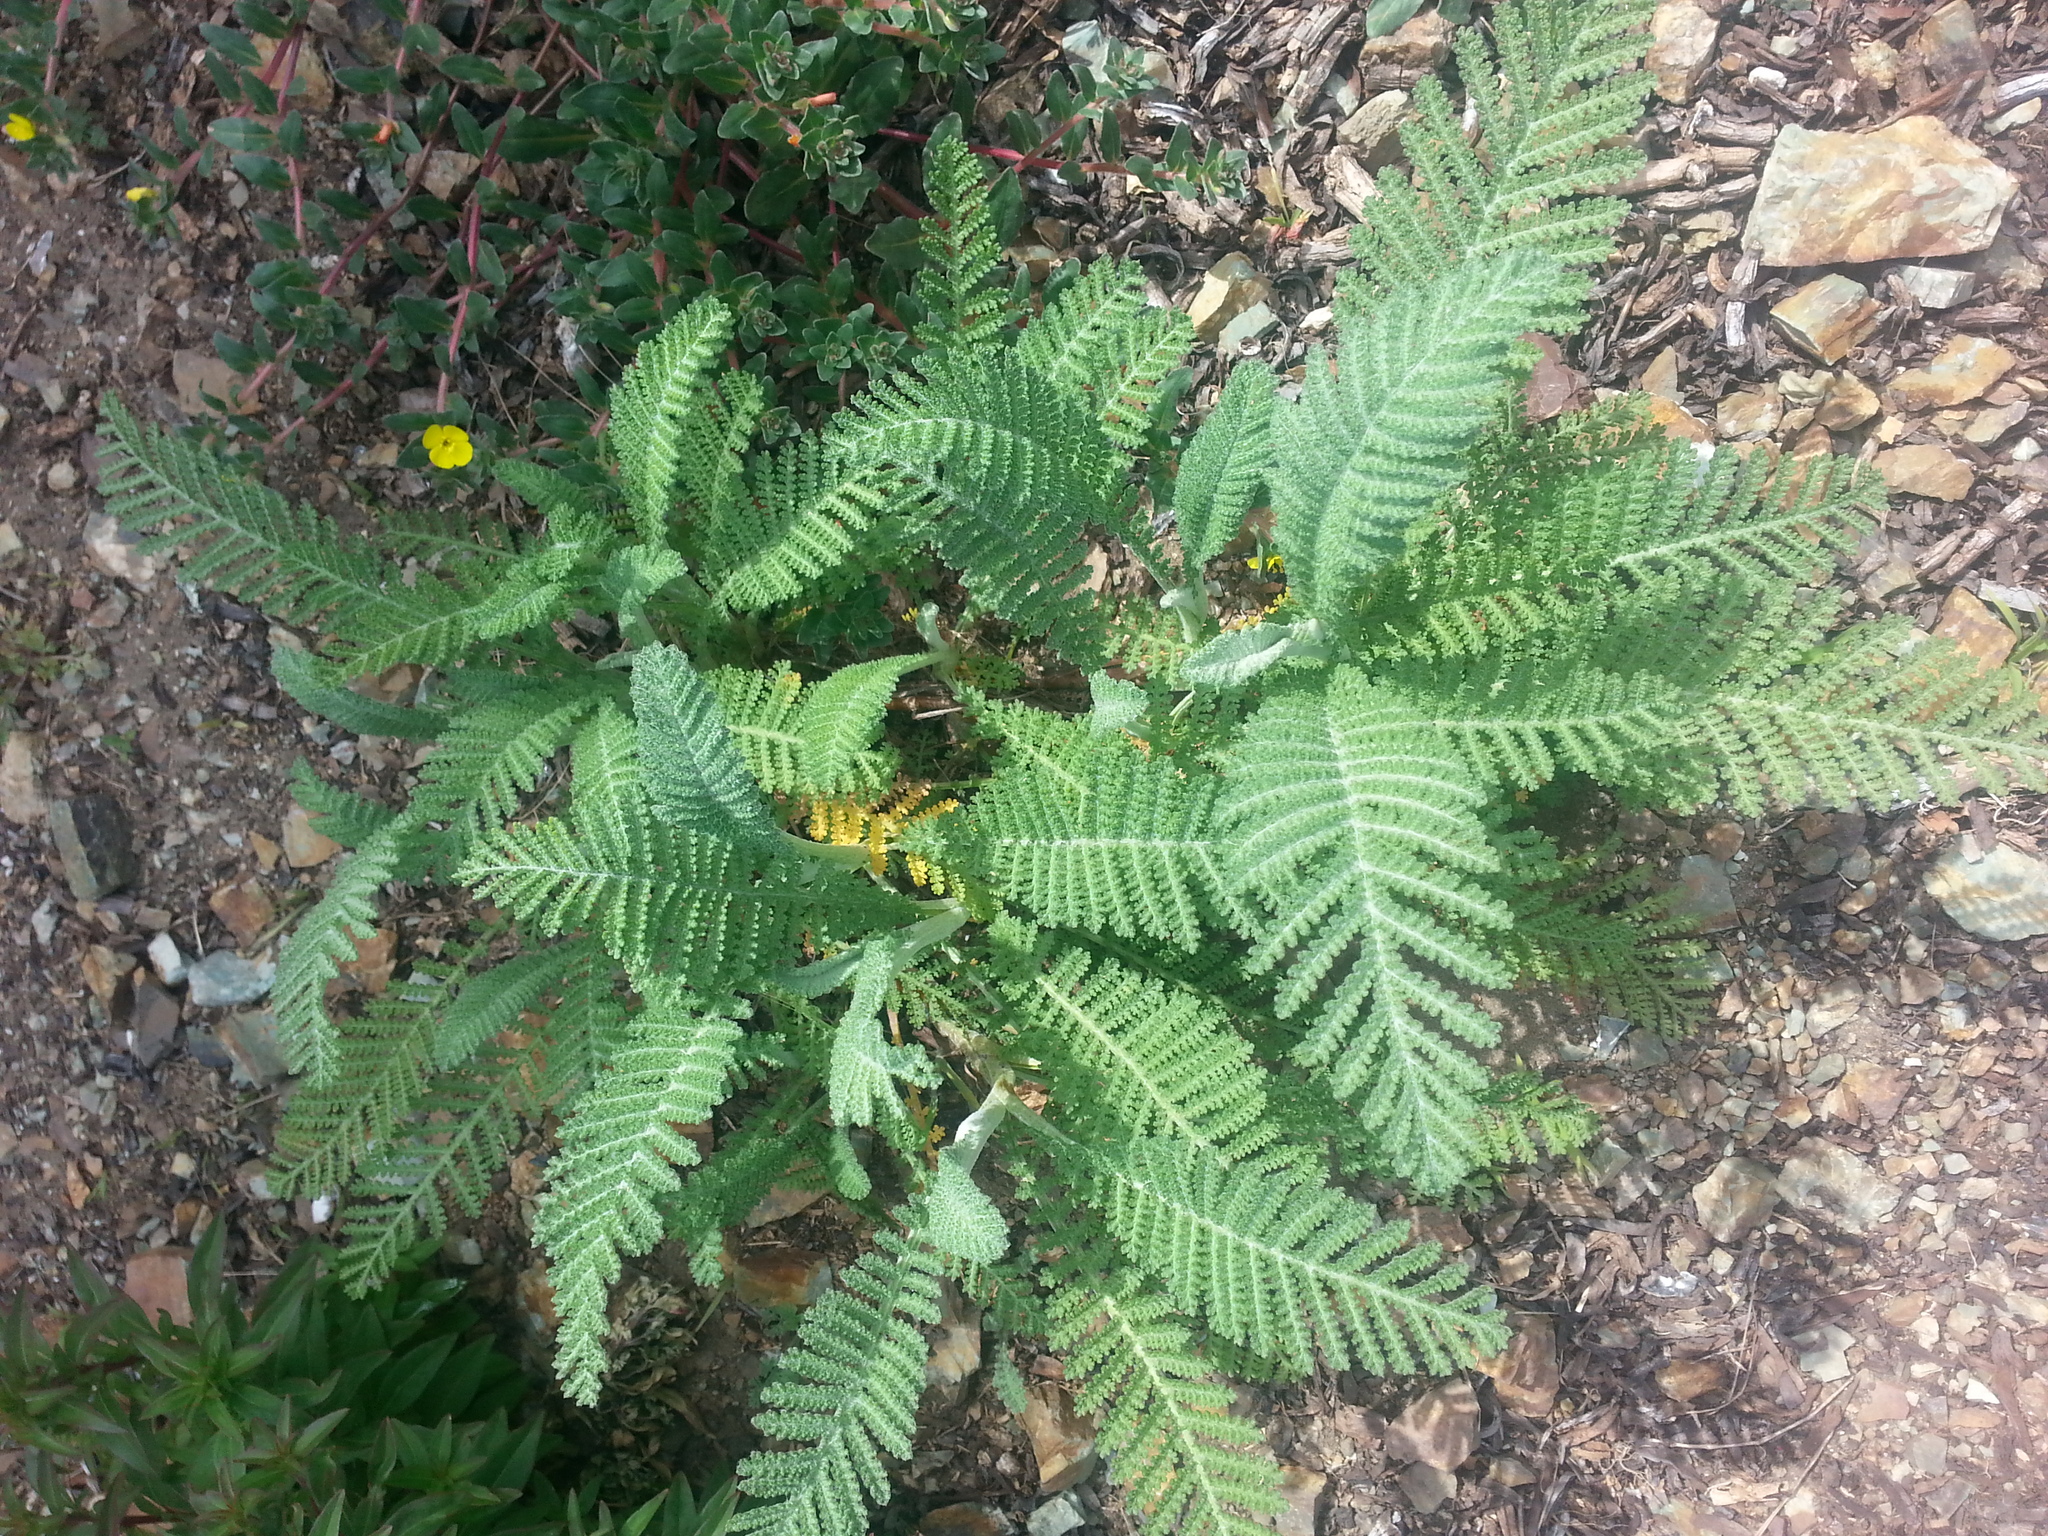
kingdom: Plantae
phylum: Tracheophyta
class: Magnoliopsida
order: Asterales
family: Asteraceae
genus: Tanacetum
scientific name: Tanacetum bipinnatum
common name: Dwarf tansy
